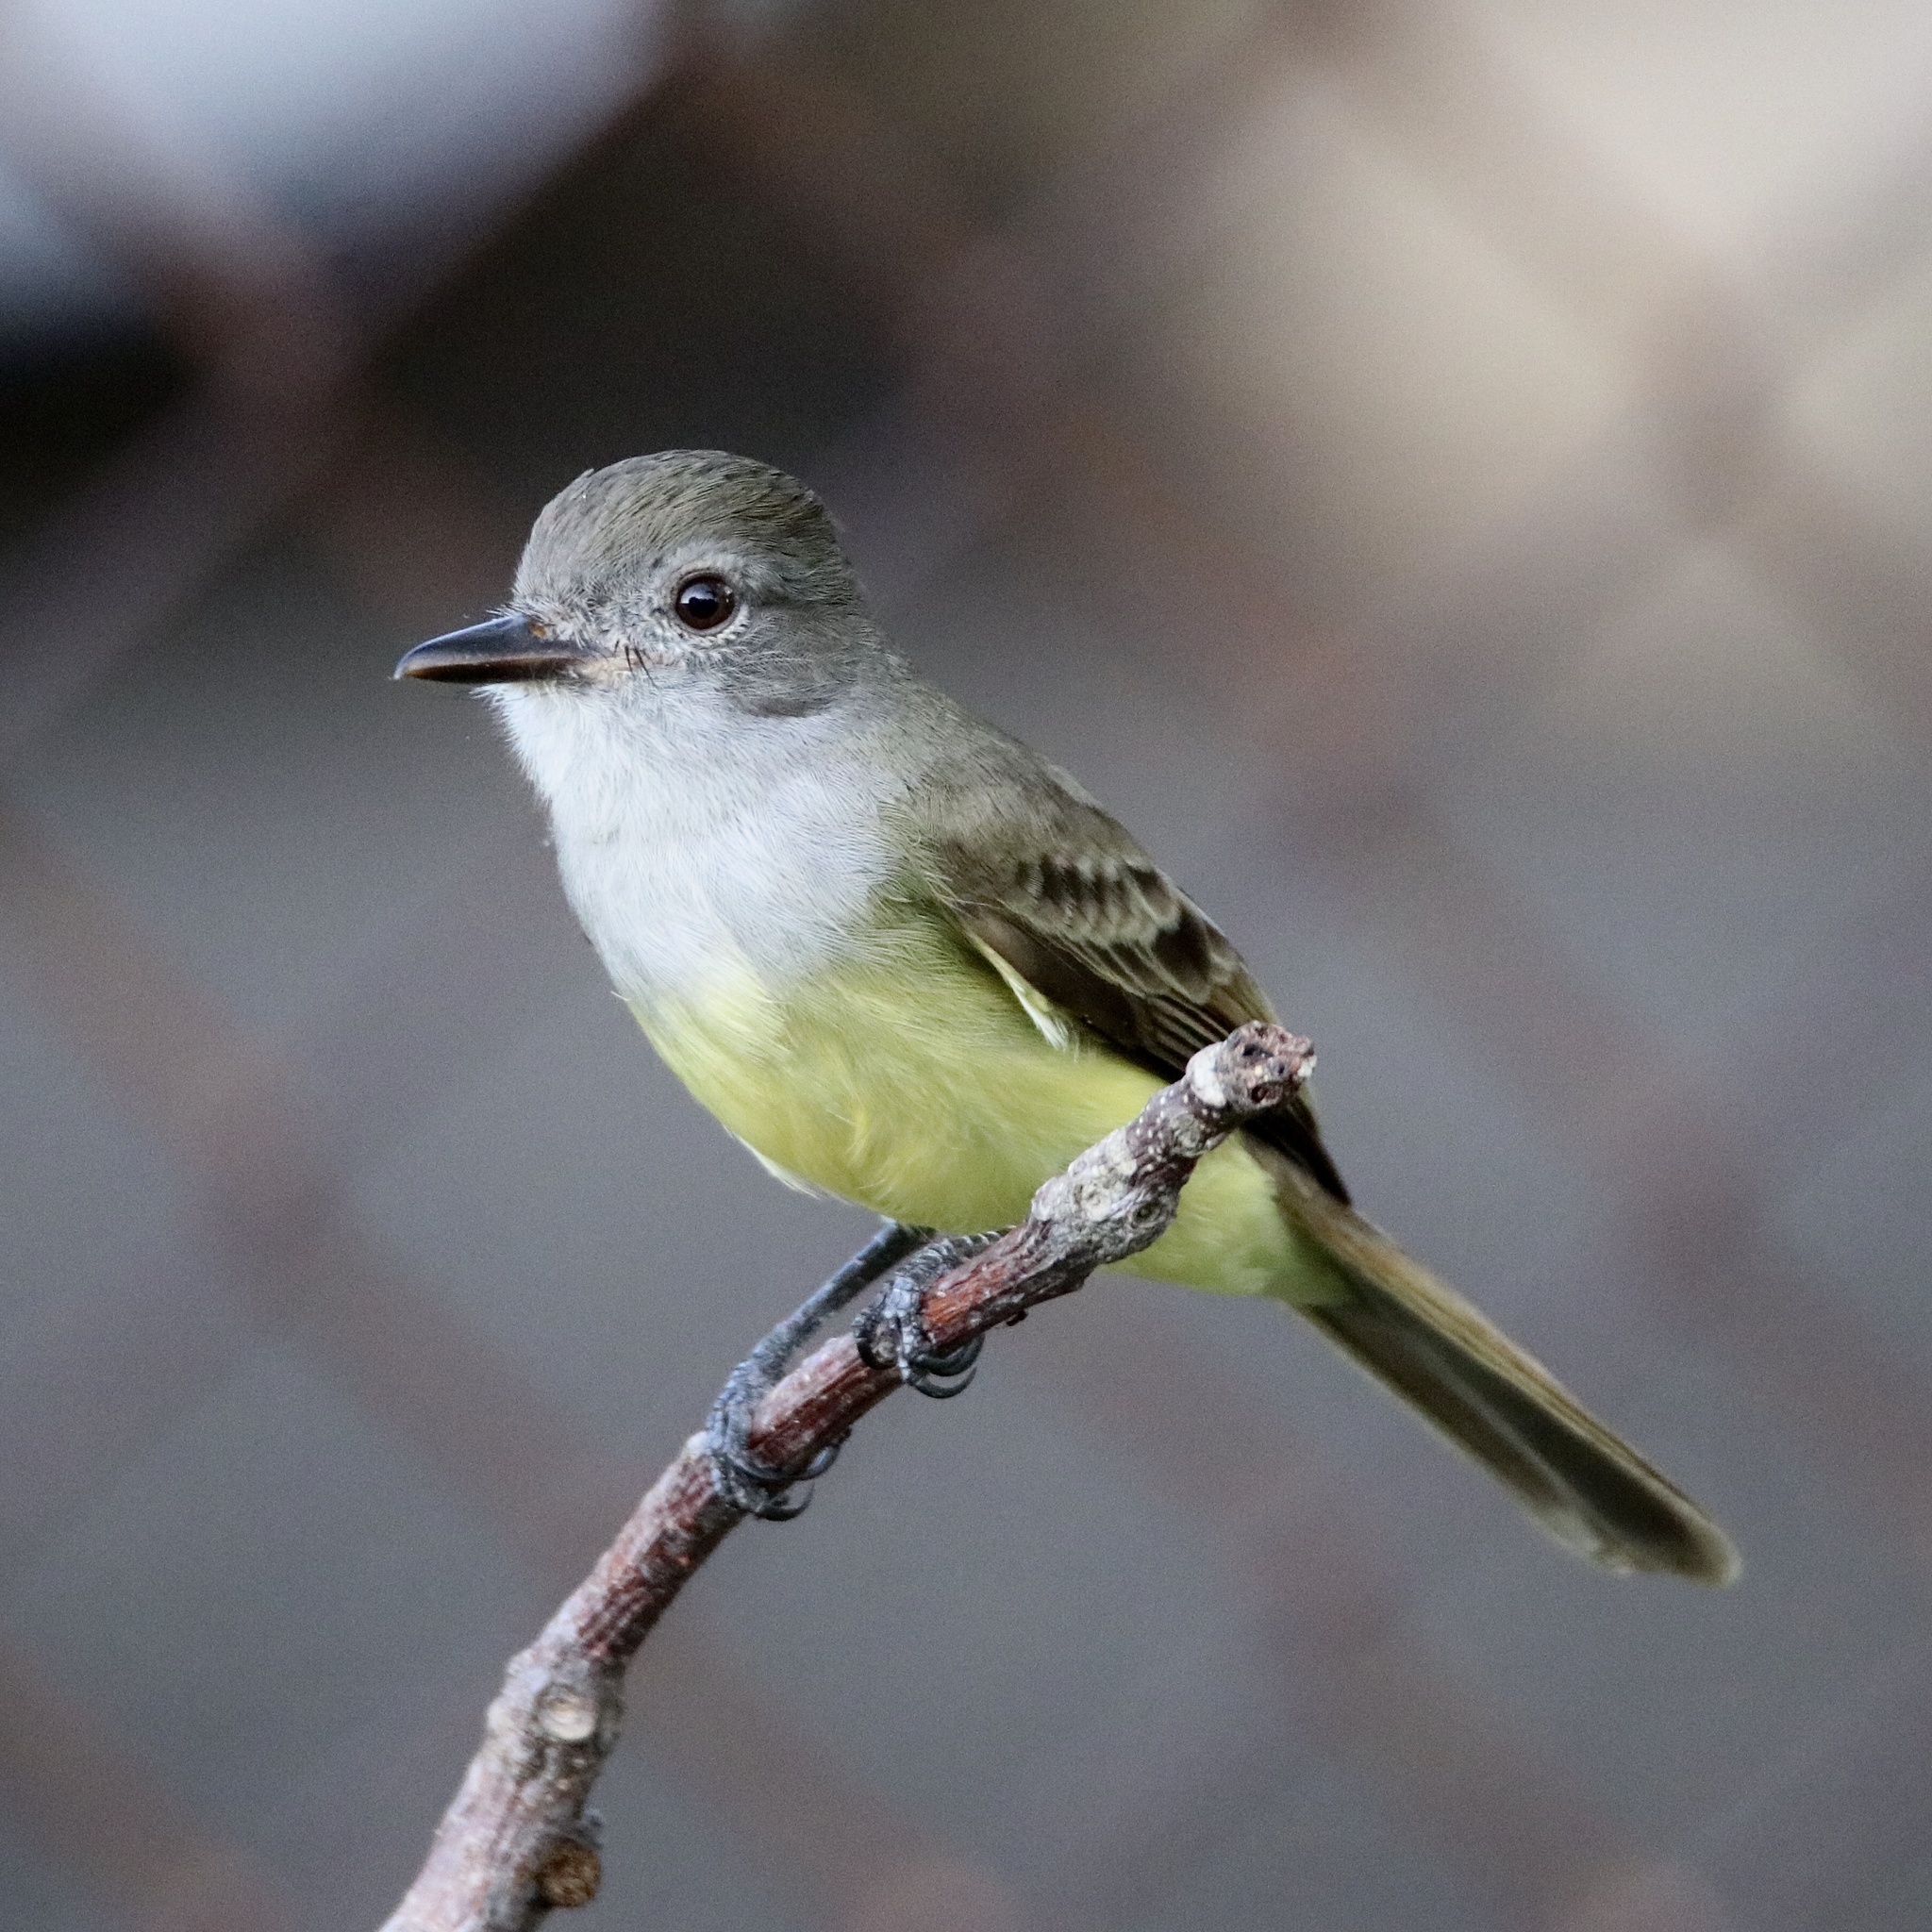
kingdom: Animalia
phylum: Chordata
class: Aves
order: Passeriformes
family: Tyrannidae
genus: Myiarchus
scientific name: Myiarchus panamensis
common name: Panama flycatcher
